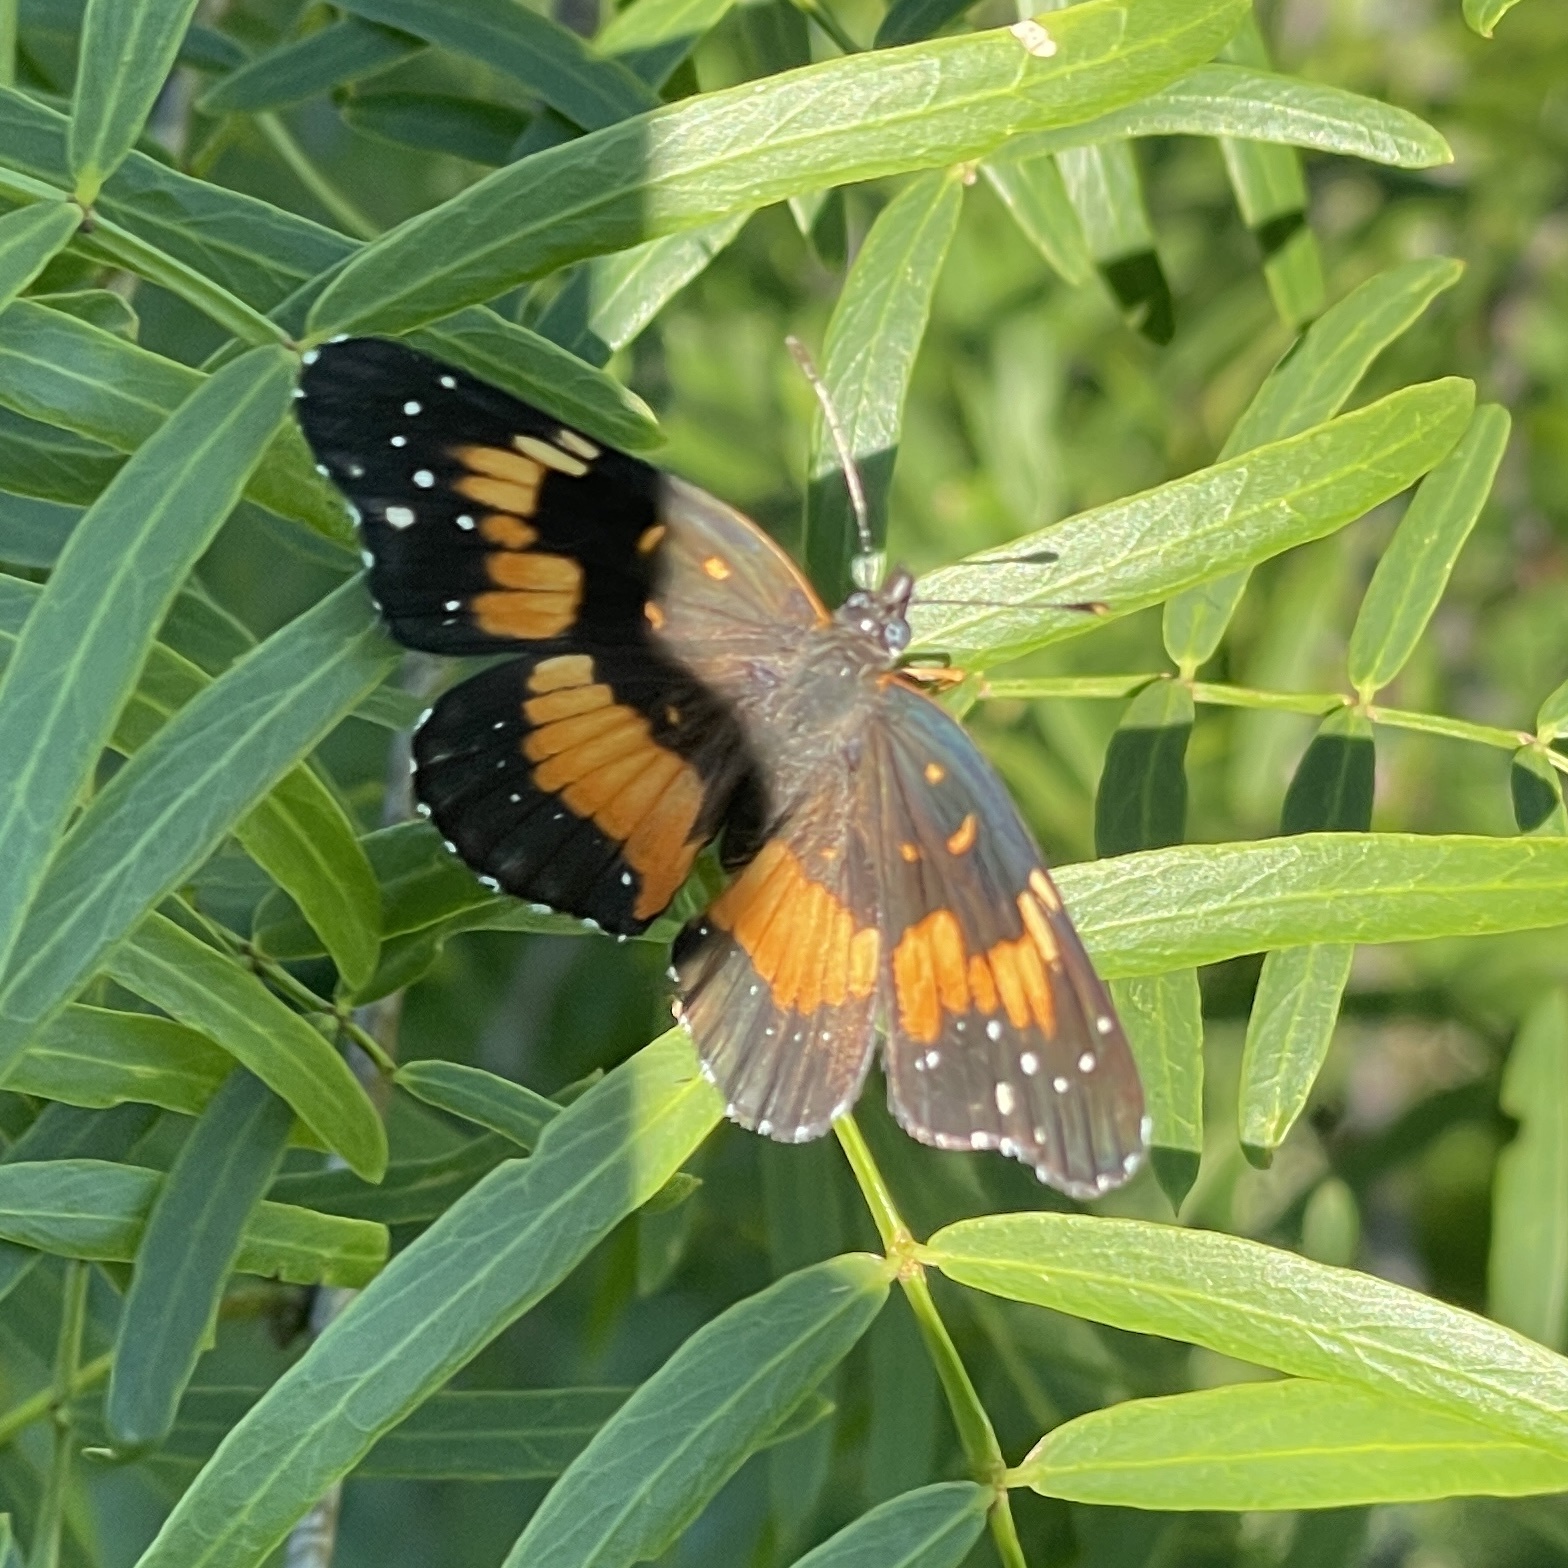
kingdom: Animalia
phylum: Arthropoda
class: Insecta
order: Lepidoptera
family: Nymphalidae
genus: Chlosyne
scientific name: Chlosyne lacinia
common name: Bordered patch
